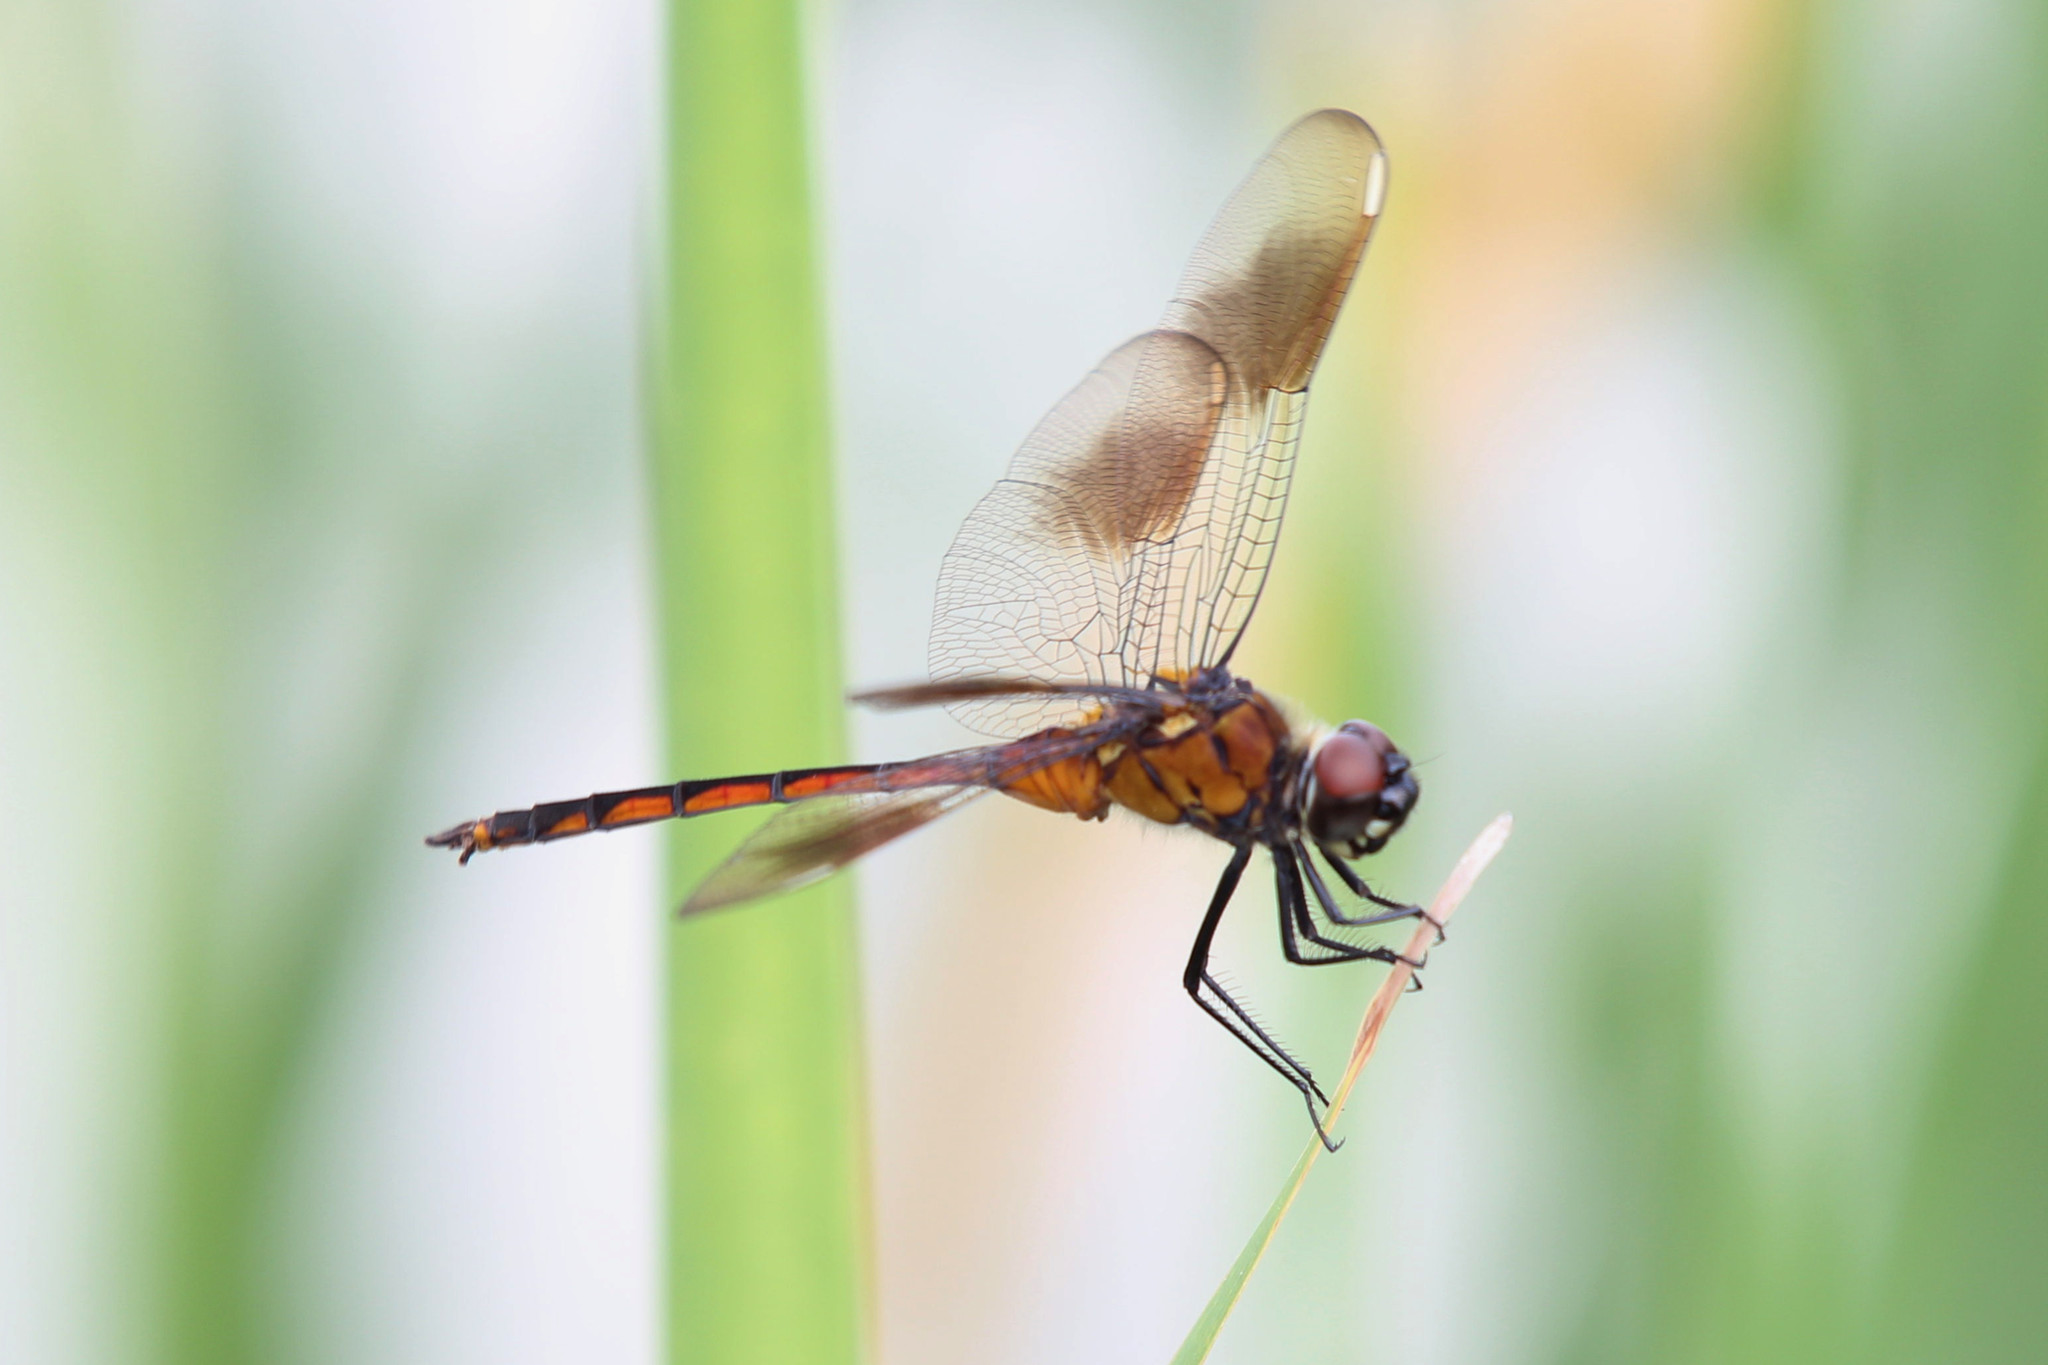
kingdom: Animalia
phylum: Arthropoda
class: Insecta
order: Odonata
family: Libellulidae
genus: Brachymesia
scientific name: Brachymesia gravida
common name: Four-spotted pennant
